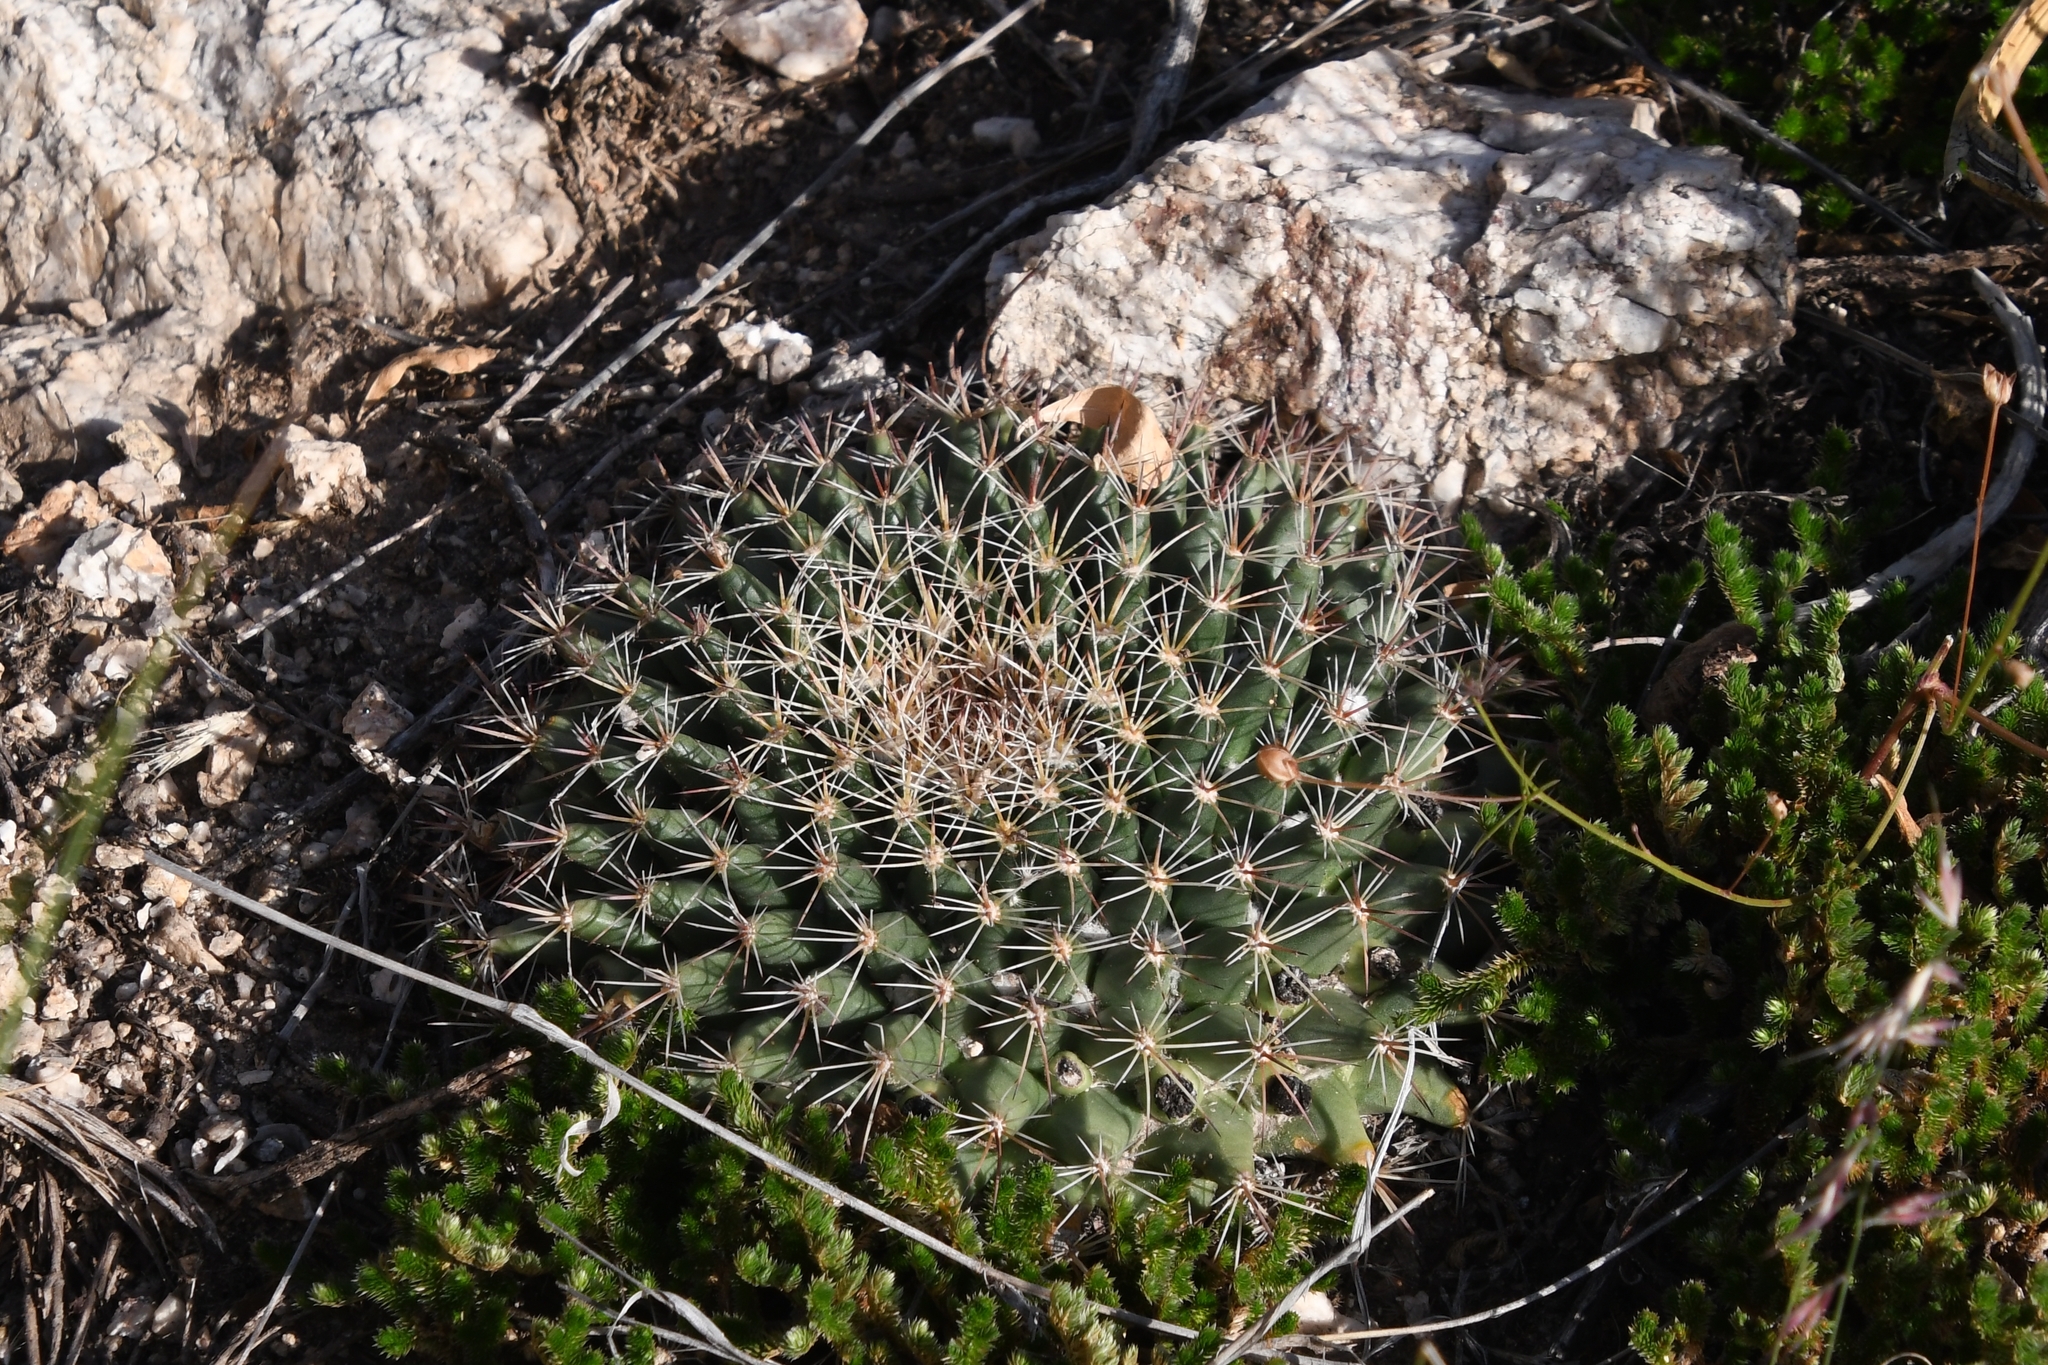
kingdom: Plantae
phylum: Tracheophyta
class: Magnoliopsida
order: Caryophyllales
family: Cactaceae
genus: Mammillaria
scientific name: Mammillaria heyderi
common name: Little nipple cactus
